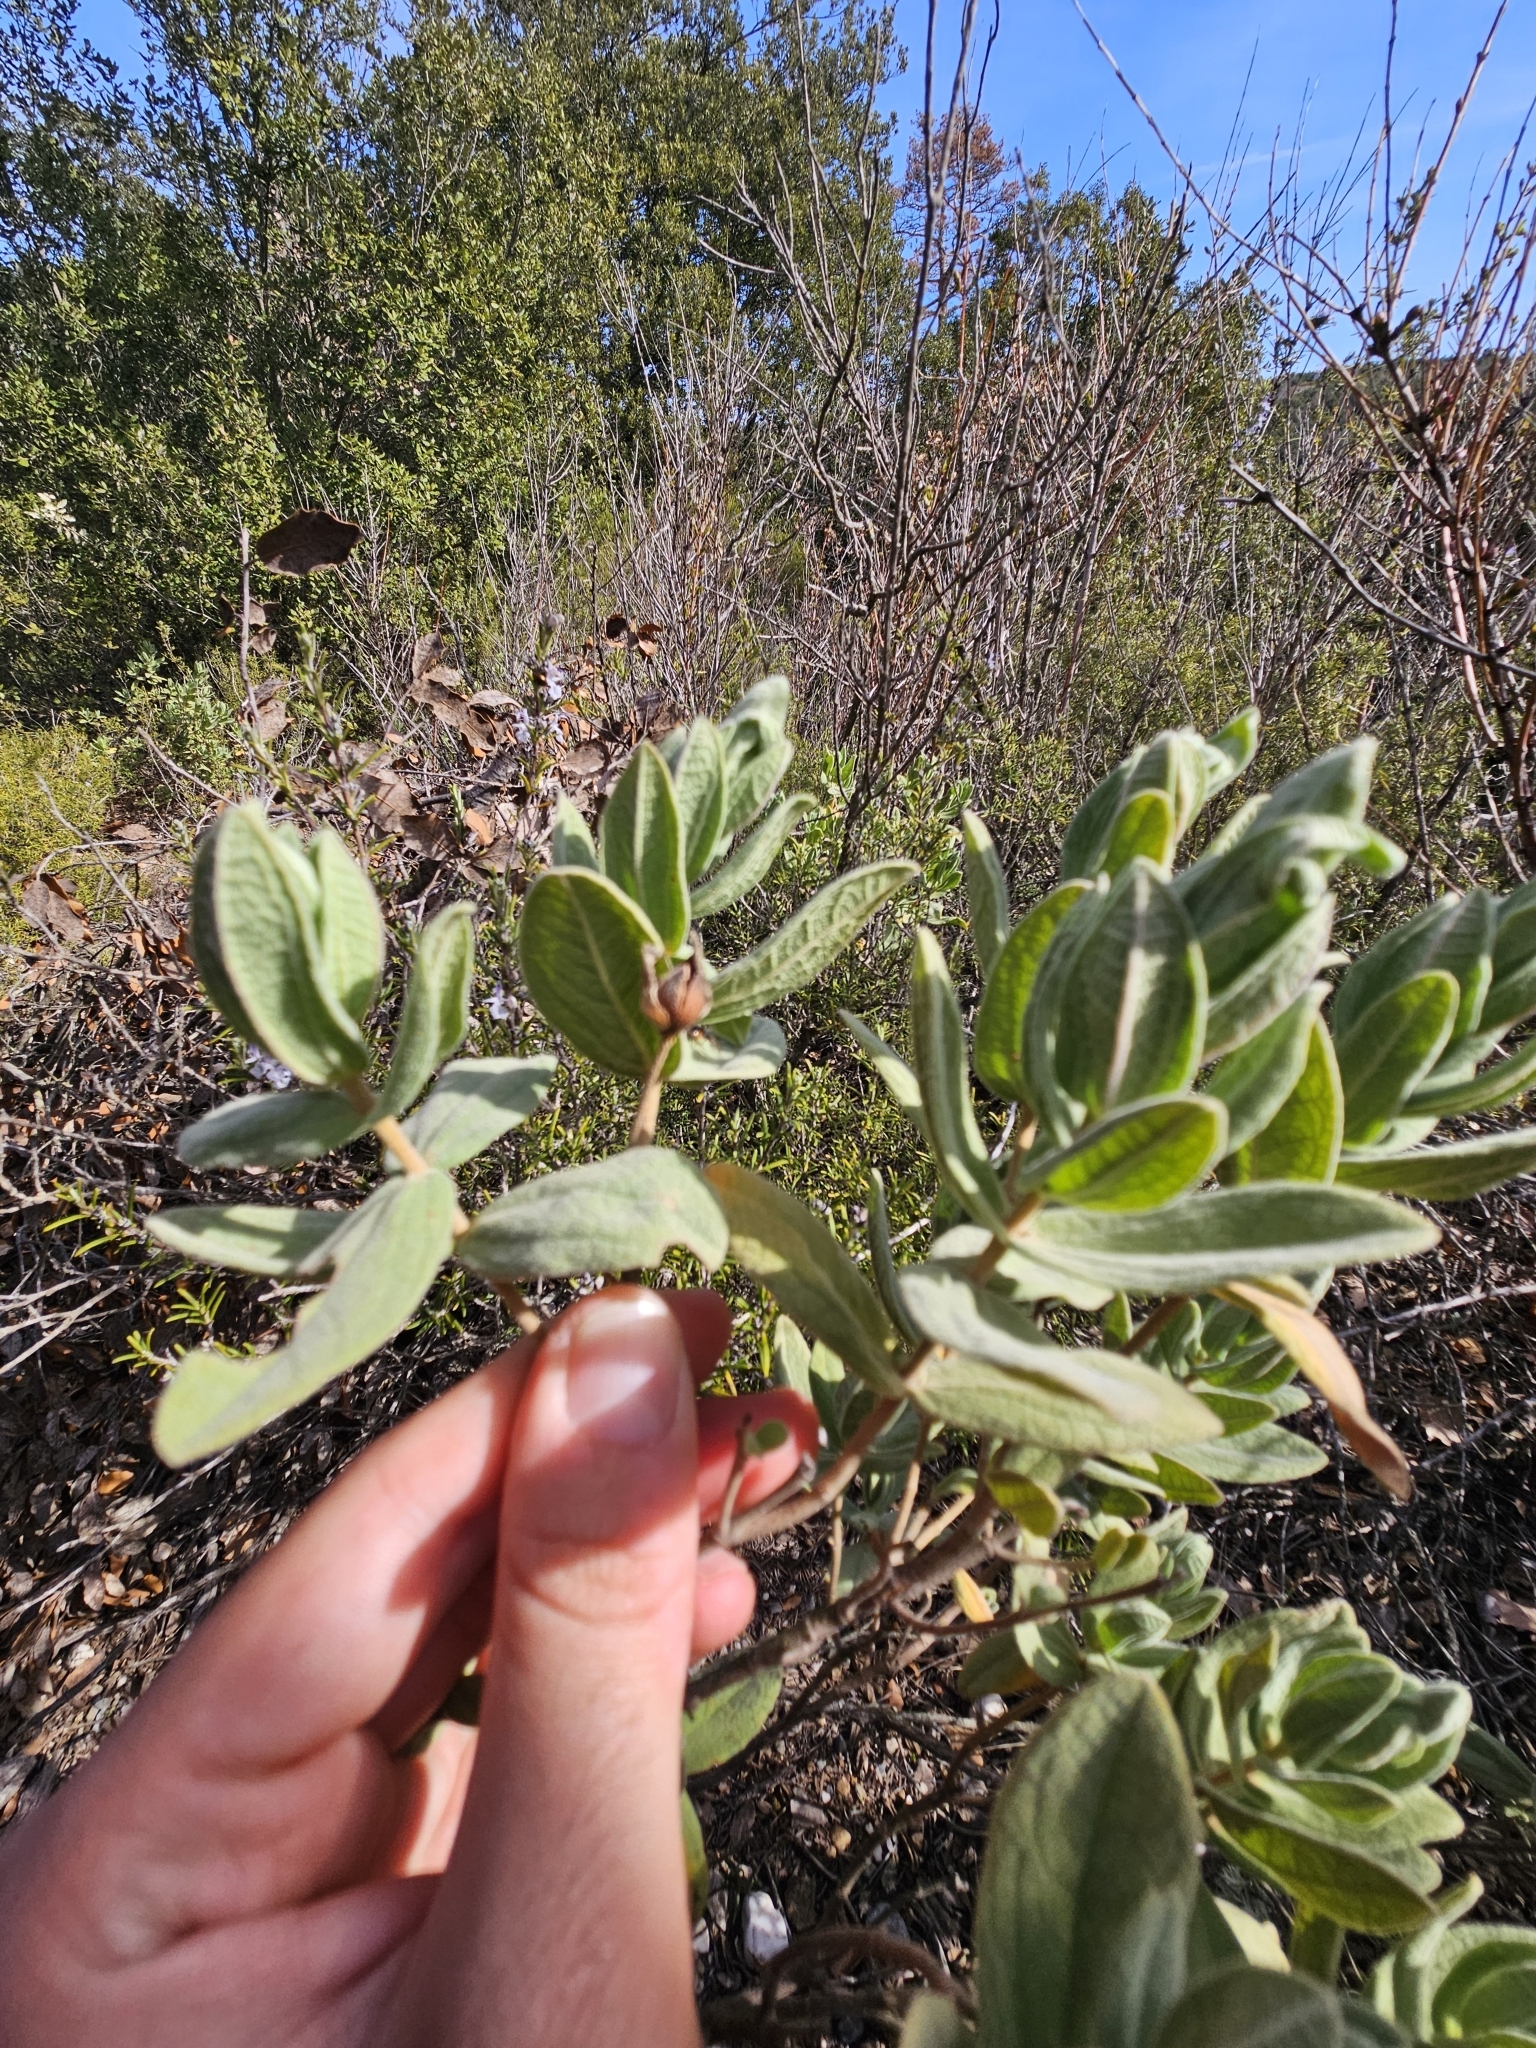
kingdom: Plantae
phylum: Tracheophyta
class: Magnoliopsida
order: Malvales
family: Cistaceae
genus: Cistus
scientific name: Cistus albidus
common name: White-leaf rock-rose
